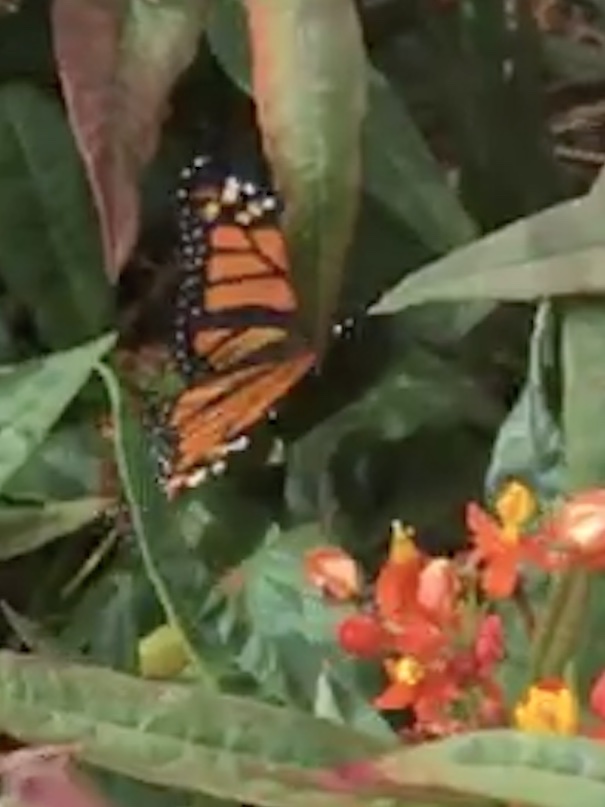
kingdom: Animalia
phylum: Arthropoda
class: Insecta
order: Lepidoptera
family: Nymphalidae
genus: Danaus
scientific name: Danaus plexippus
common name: Monarch
